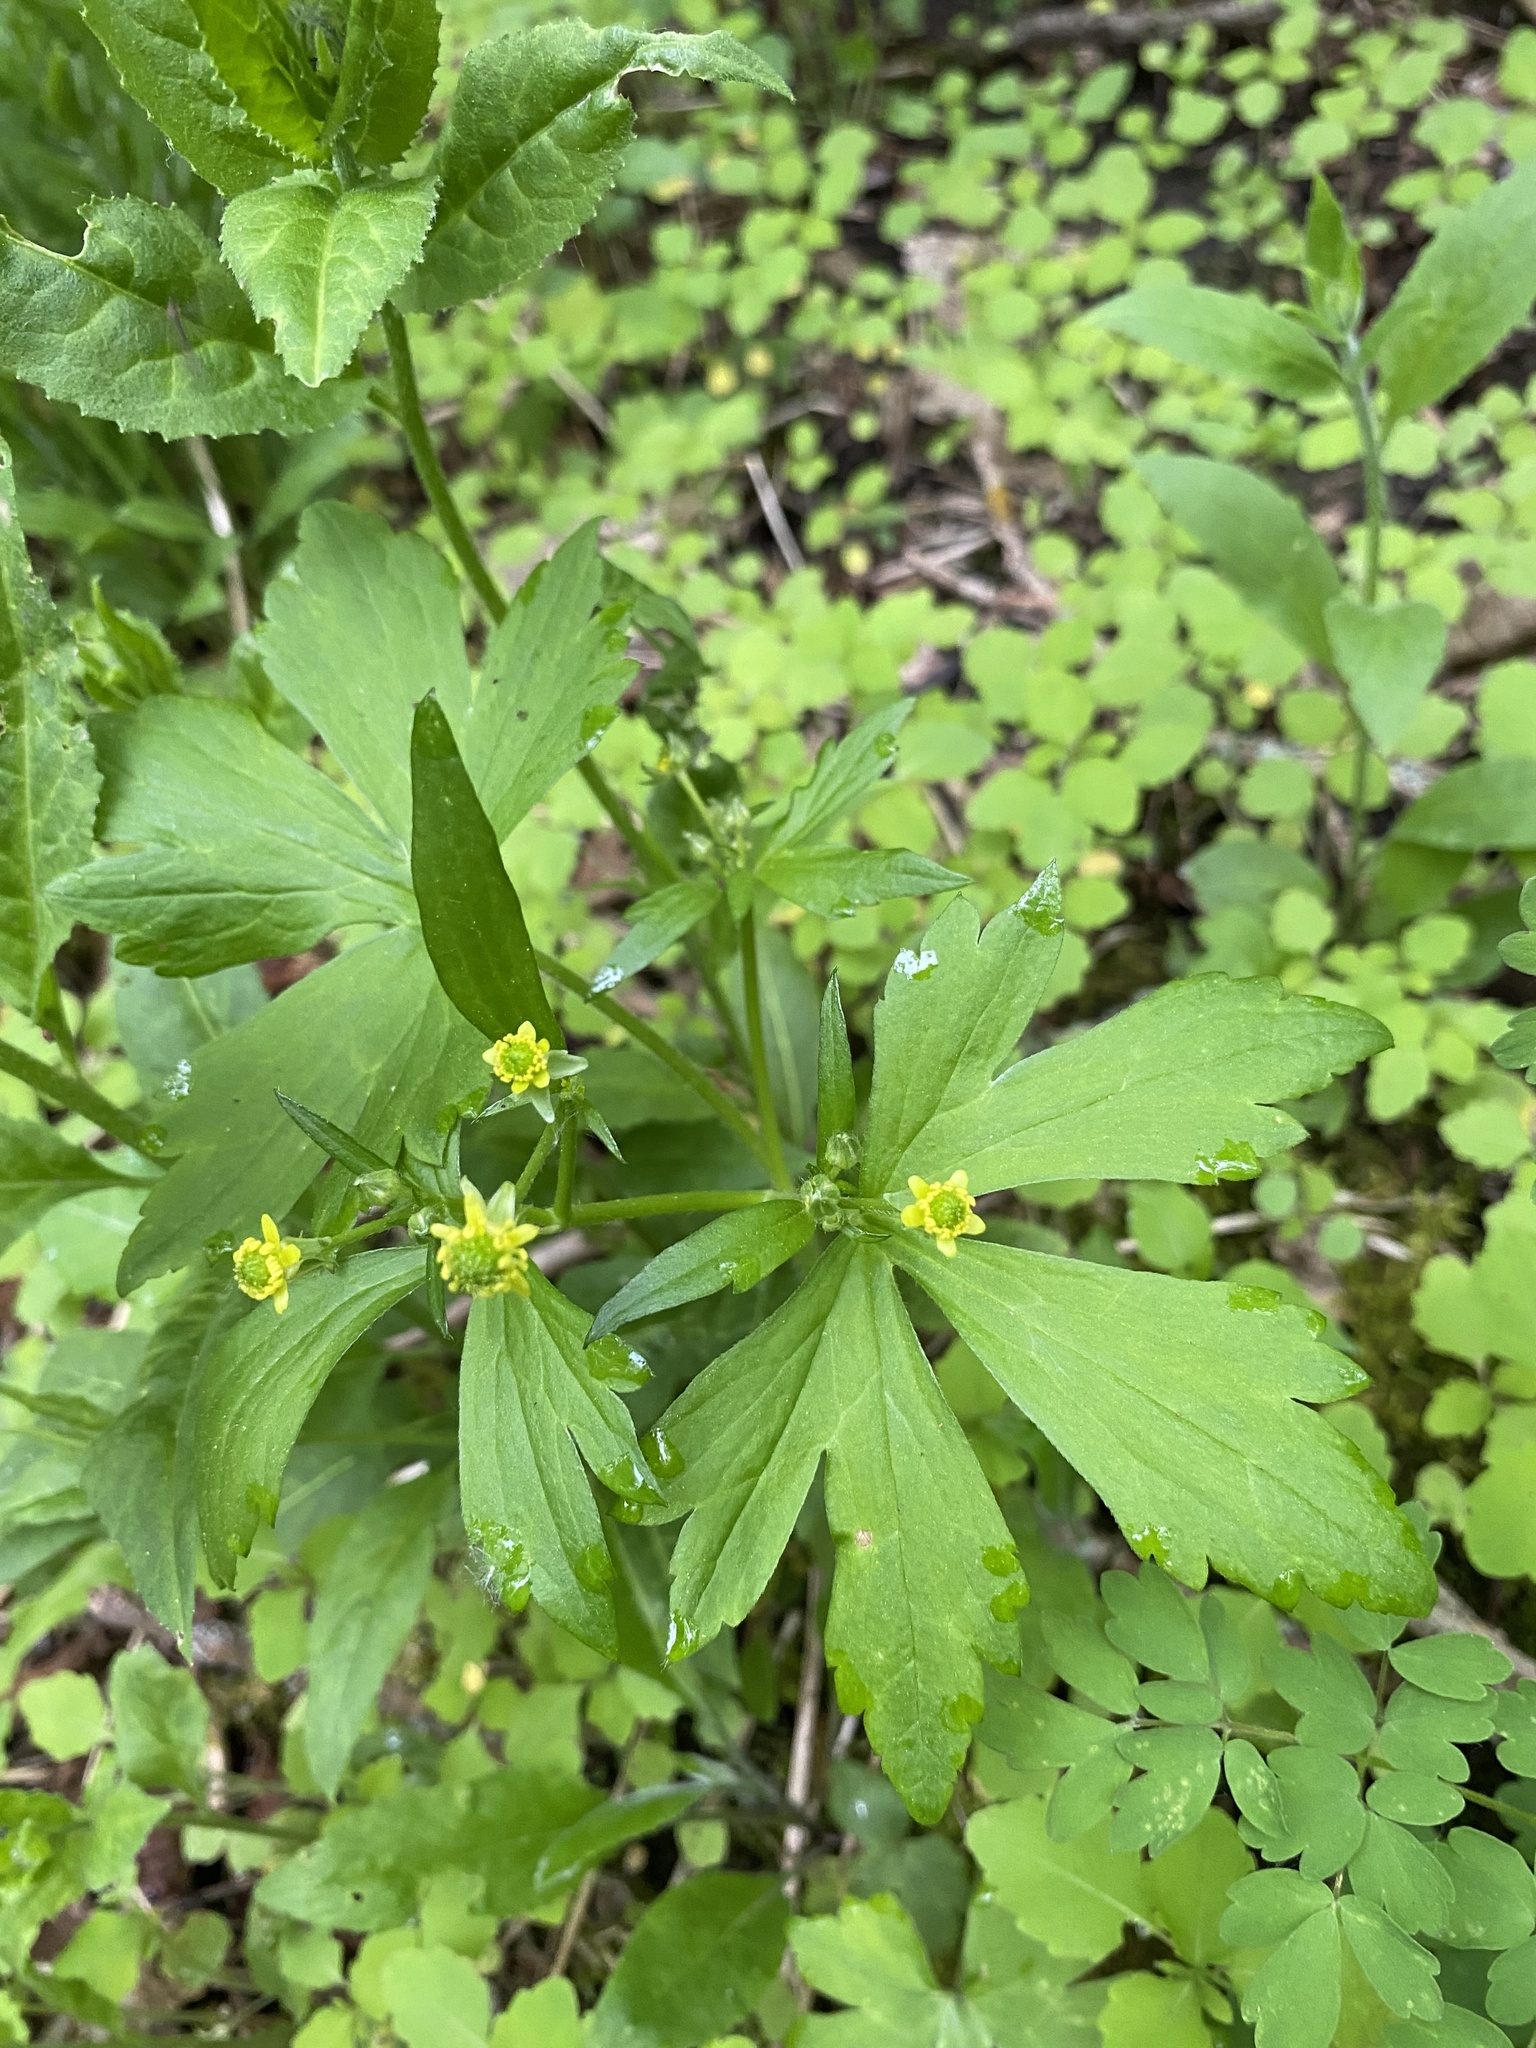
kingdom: Plantae
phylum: Tracheophyta
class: Magnoliopsida
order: Ranunculales
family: Ranunculaceae
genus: Ranunculus
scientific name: Ranunculus recurvatus
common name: Blisterwort
